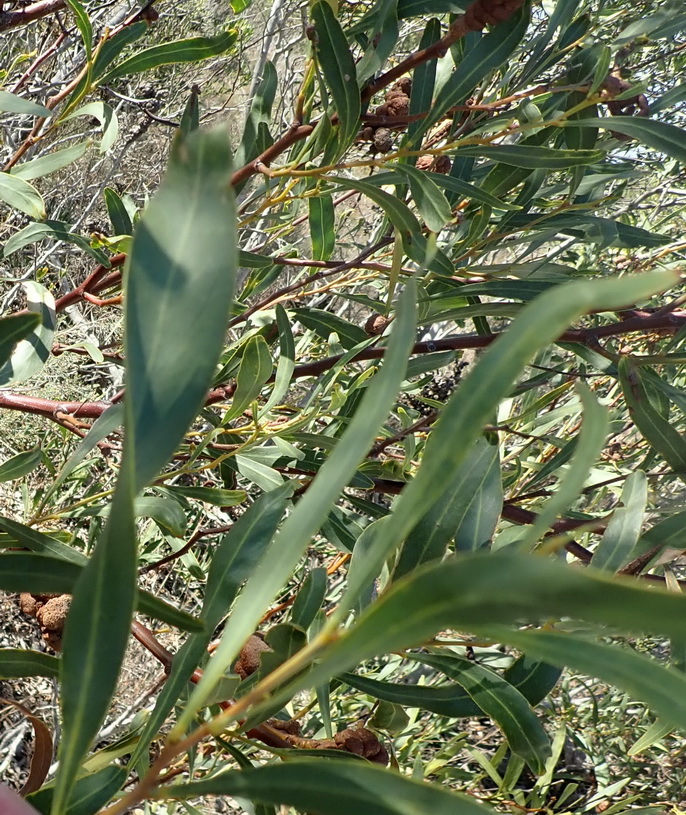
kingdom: Plantae
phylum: Tracheophyta
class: Magnoliopsida
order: Fabales
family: Fabaceae
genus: Acacia
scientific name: Acacia saligna
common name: Orange wattle
